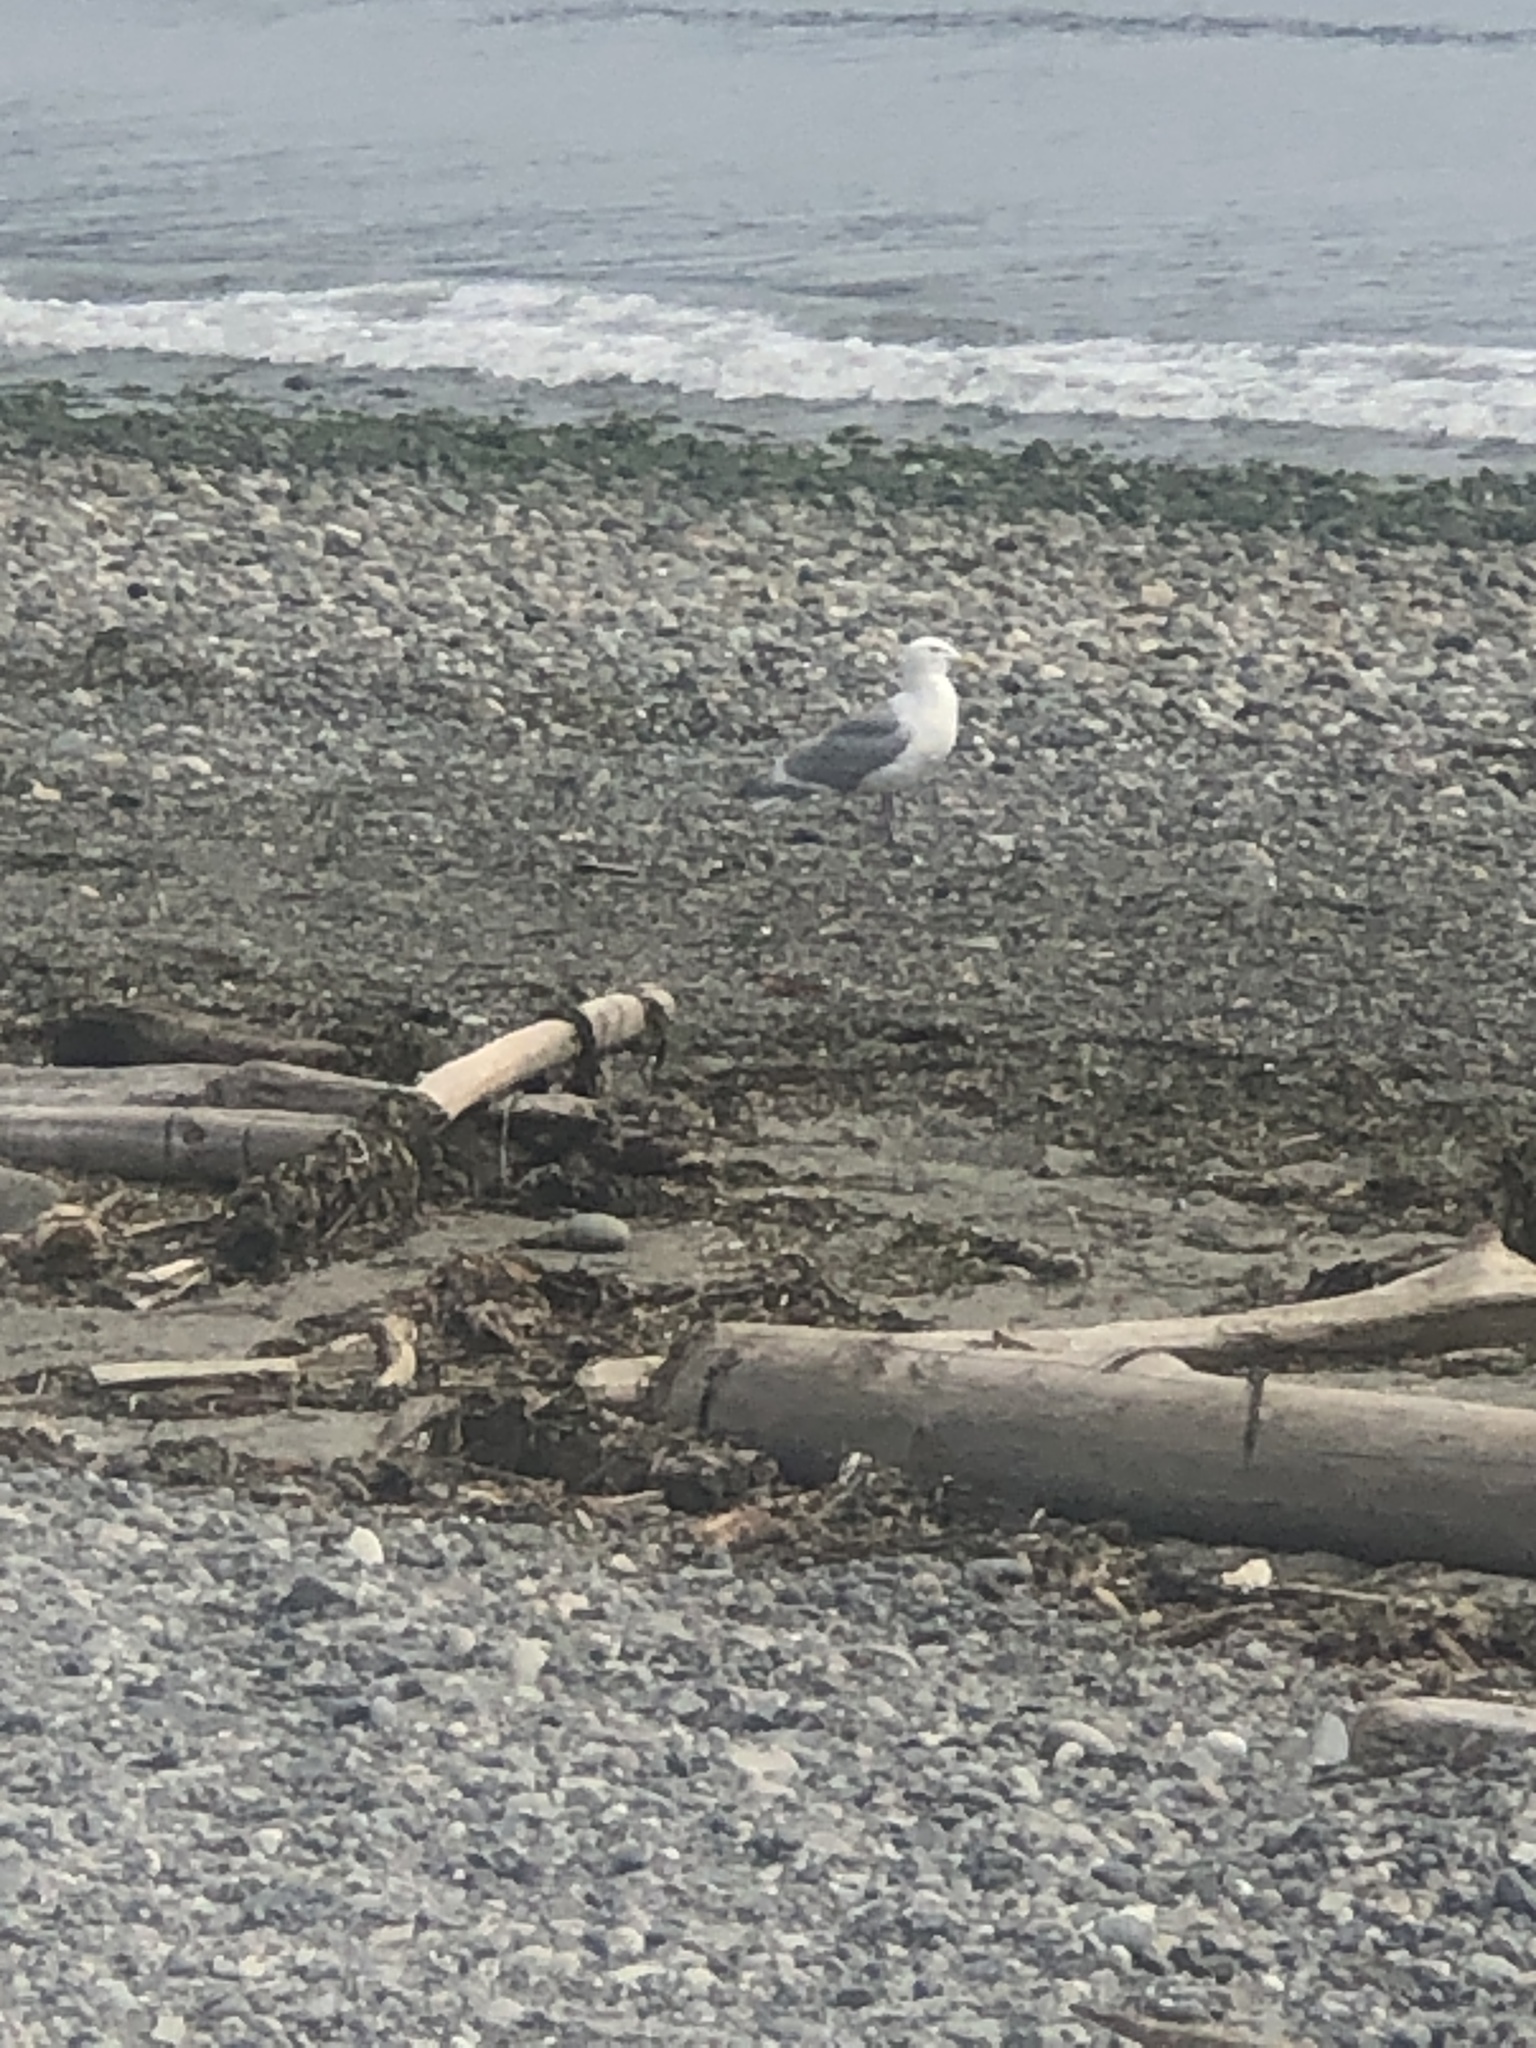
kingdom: Animalia
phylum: Chordata
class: Aves
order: Charadriiformes
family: Laridae
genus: Larus
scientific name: Larus
